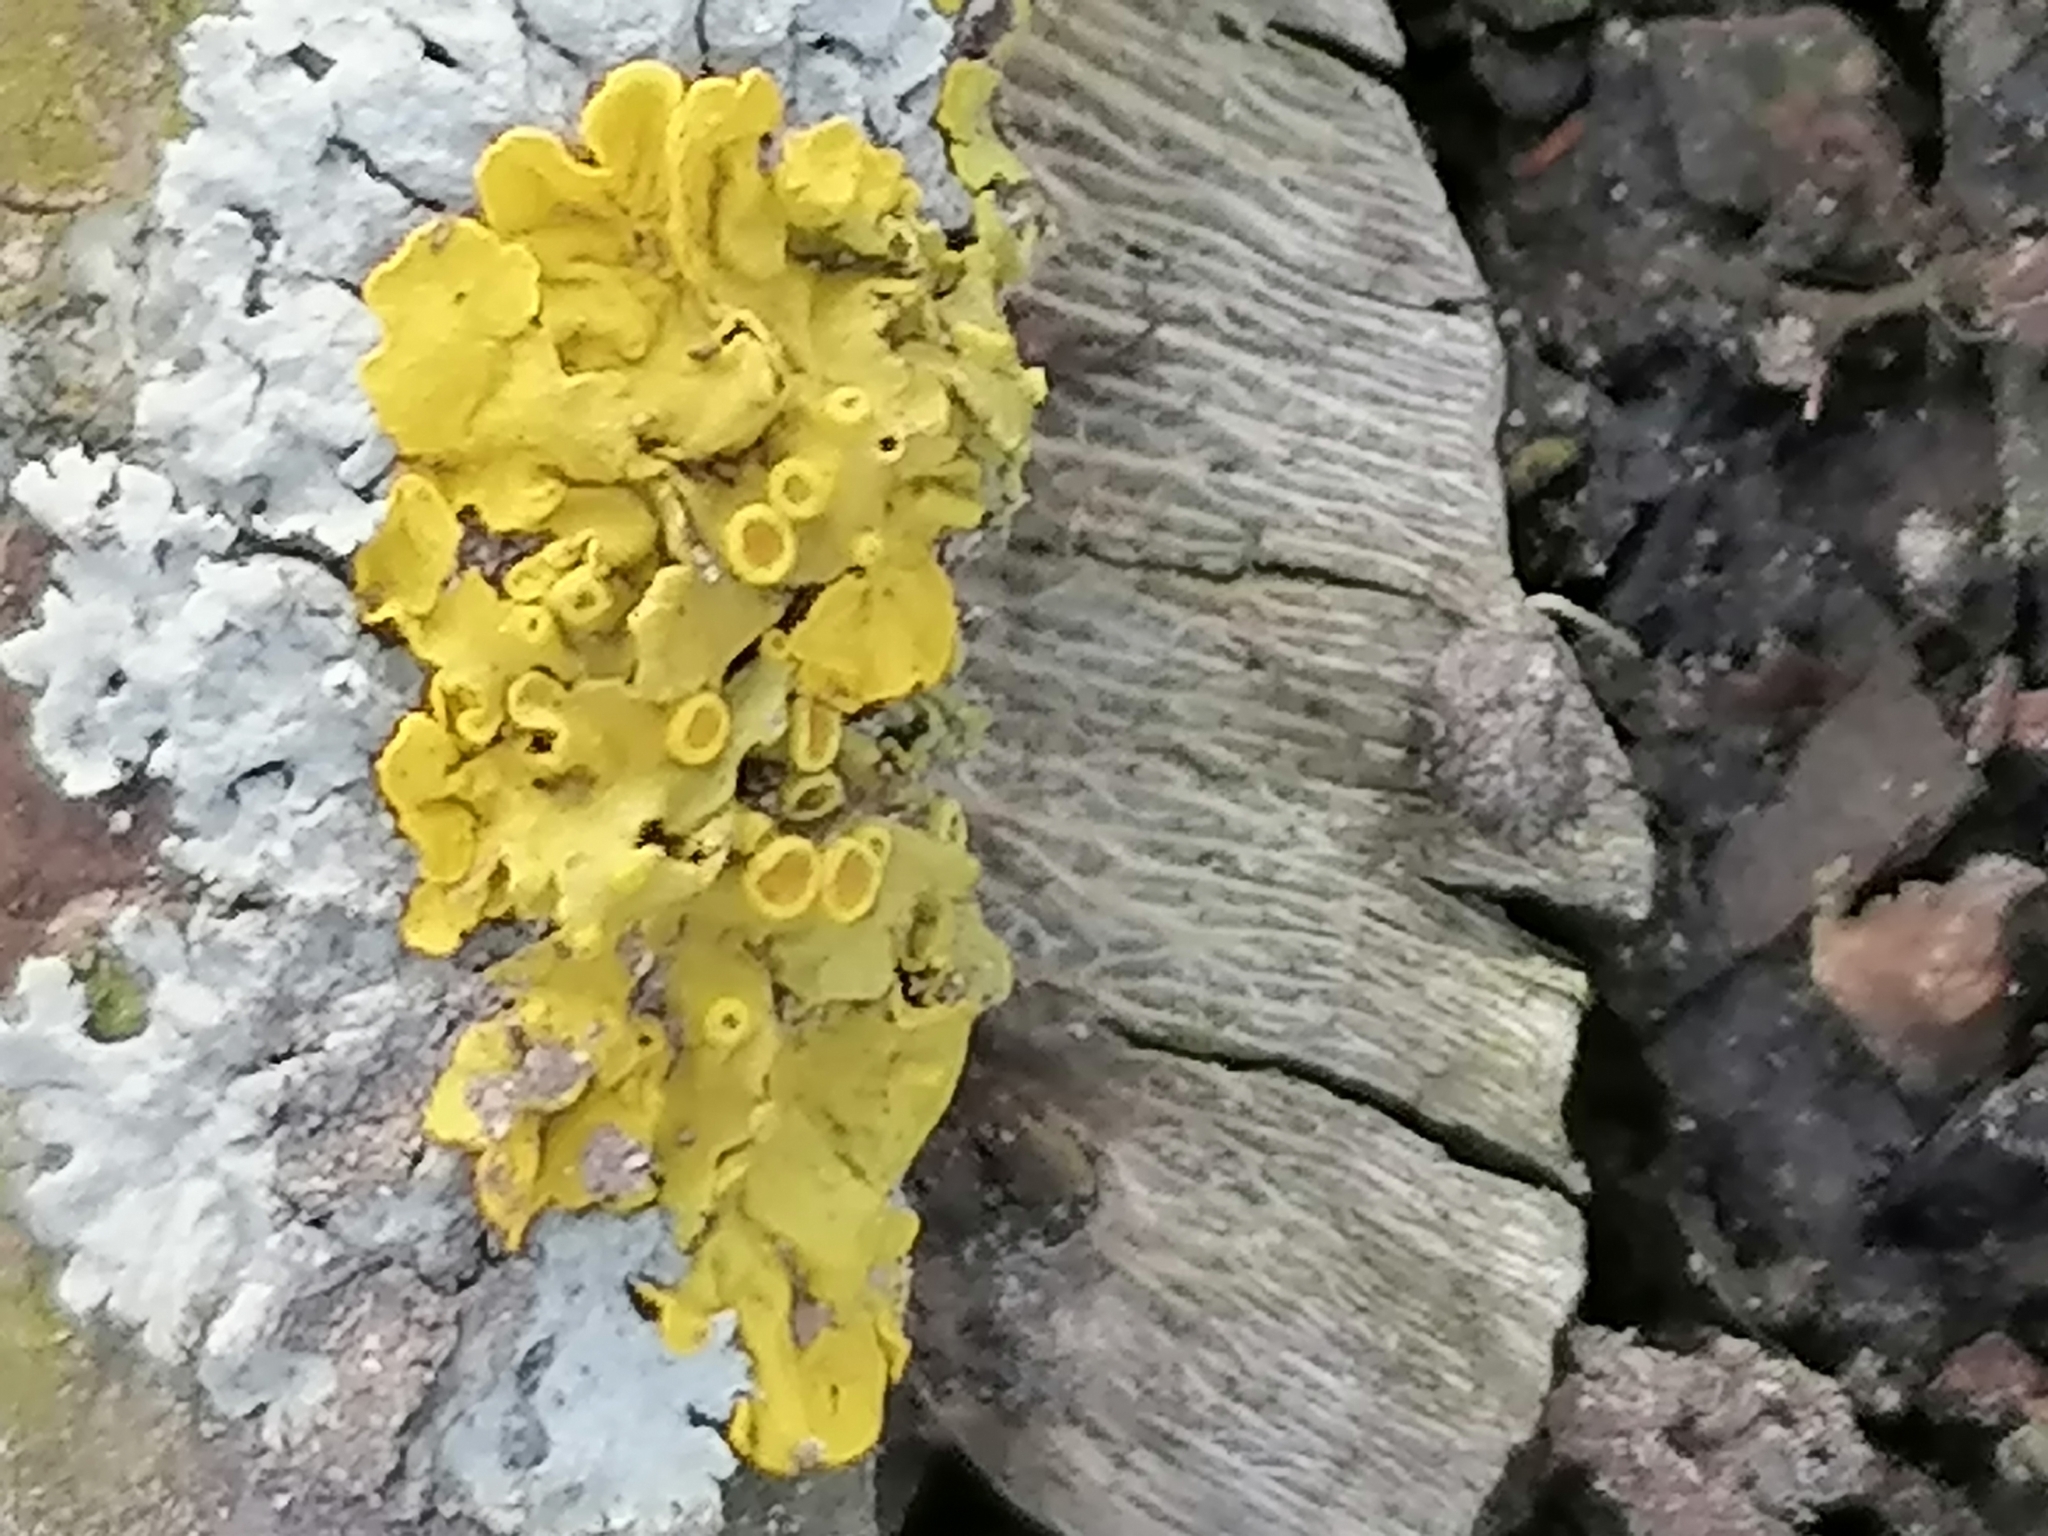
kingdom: Fungi
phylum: Ascomycota
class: Lecanoromycetes
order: Teloschistales
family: Teloschistaceae
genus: Xanthoria
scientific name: Xanthoria parietina
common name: Common orange lichen
